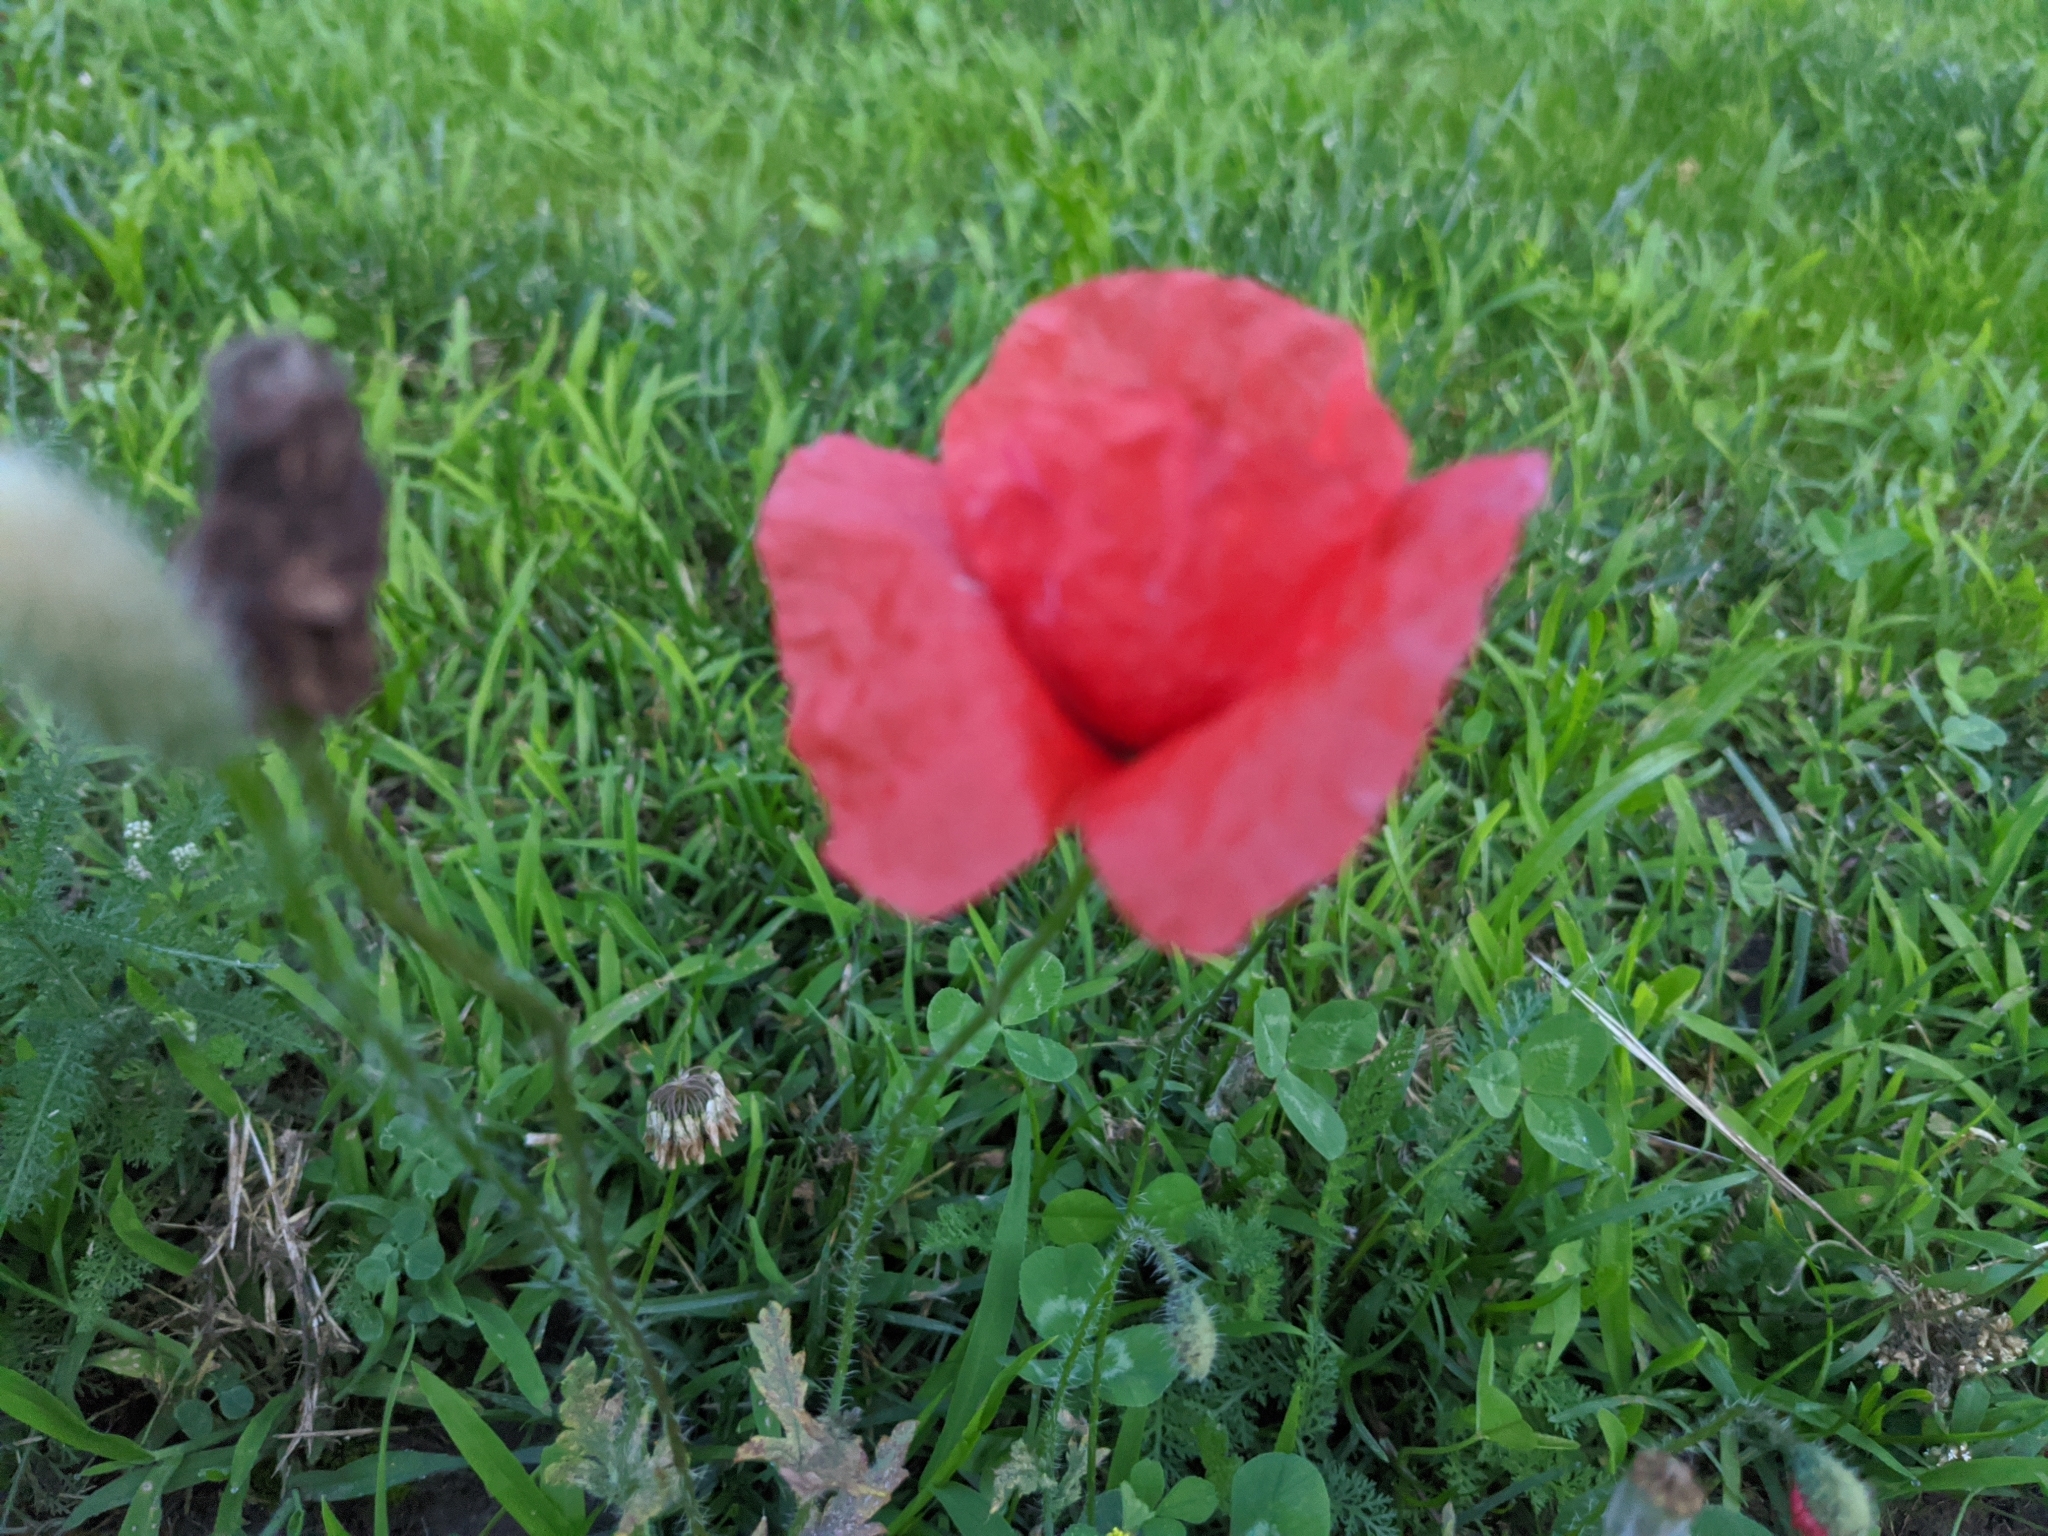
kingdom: Plantae
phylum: Tracheophyta
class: Magnoliopsida
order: Ranunculales
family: Papaveraceae
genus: Papaver
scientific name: Papaver rhoeas
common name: Corn poppy
